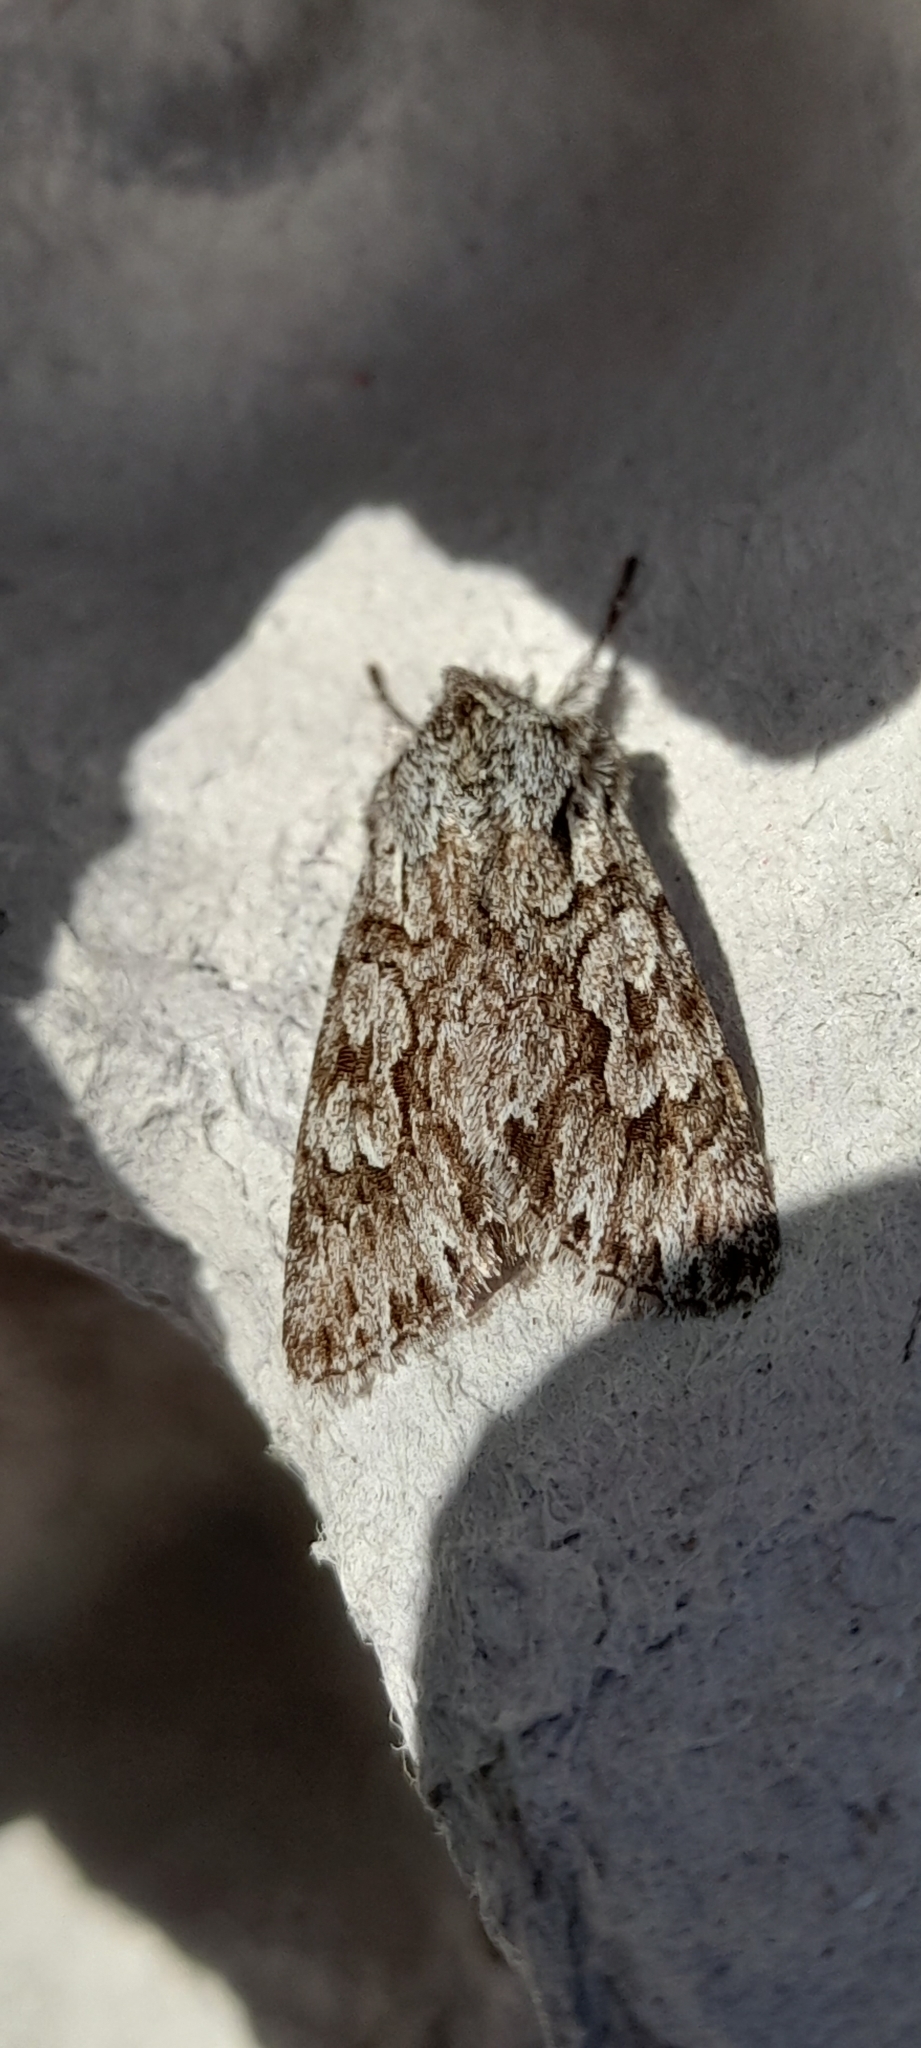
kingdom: Animalia
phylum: Arthropoda
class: Insecta
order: Lepidoptera
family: Noctuidae
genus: Xylocampa
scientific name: Xylocampa areola
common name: Early grey
